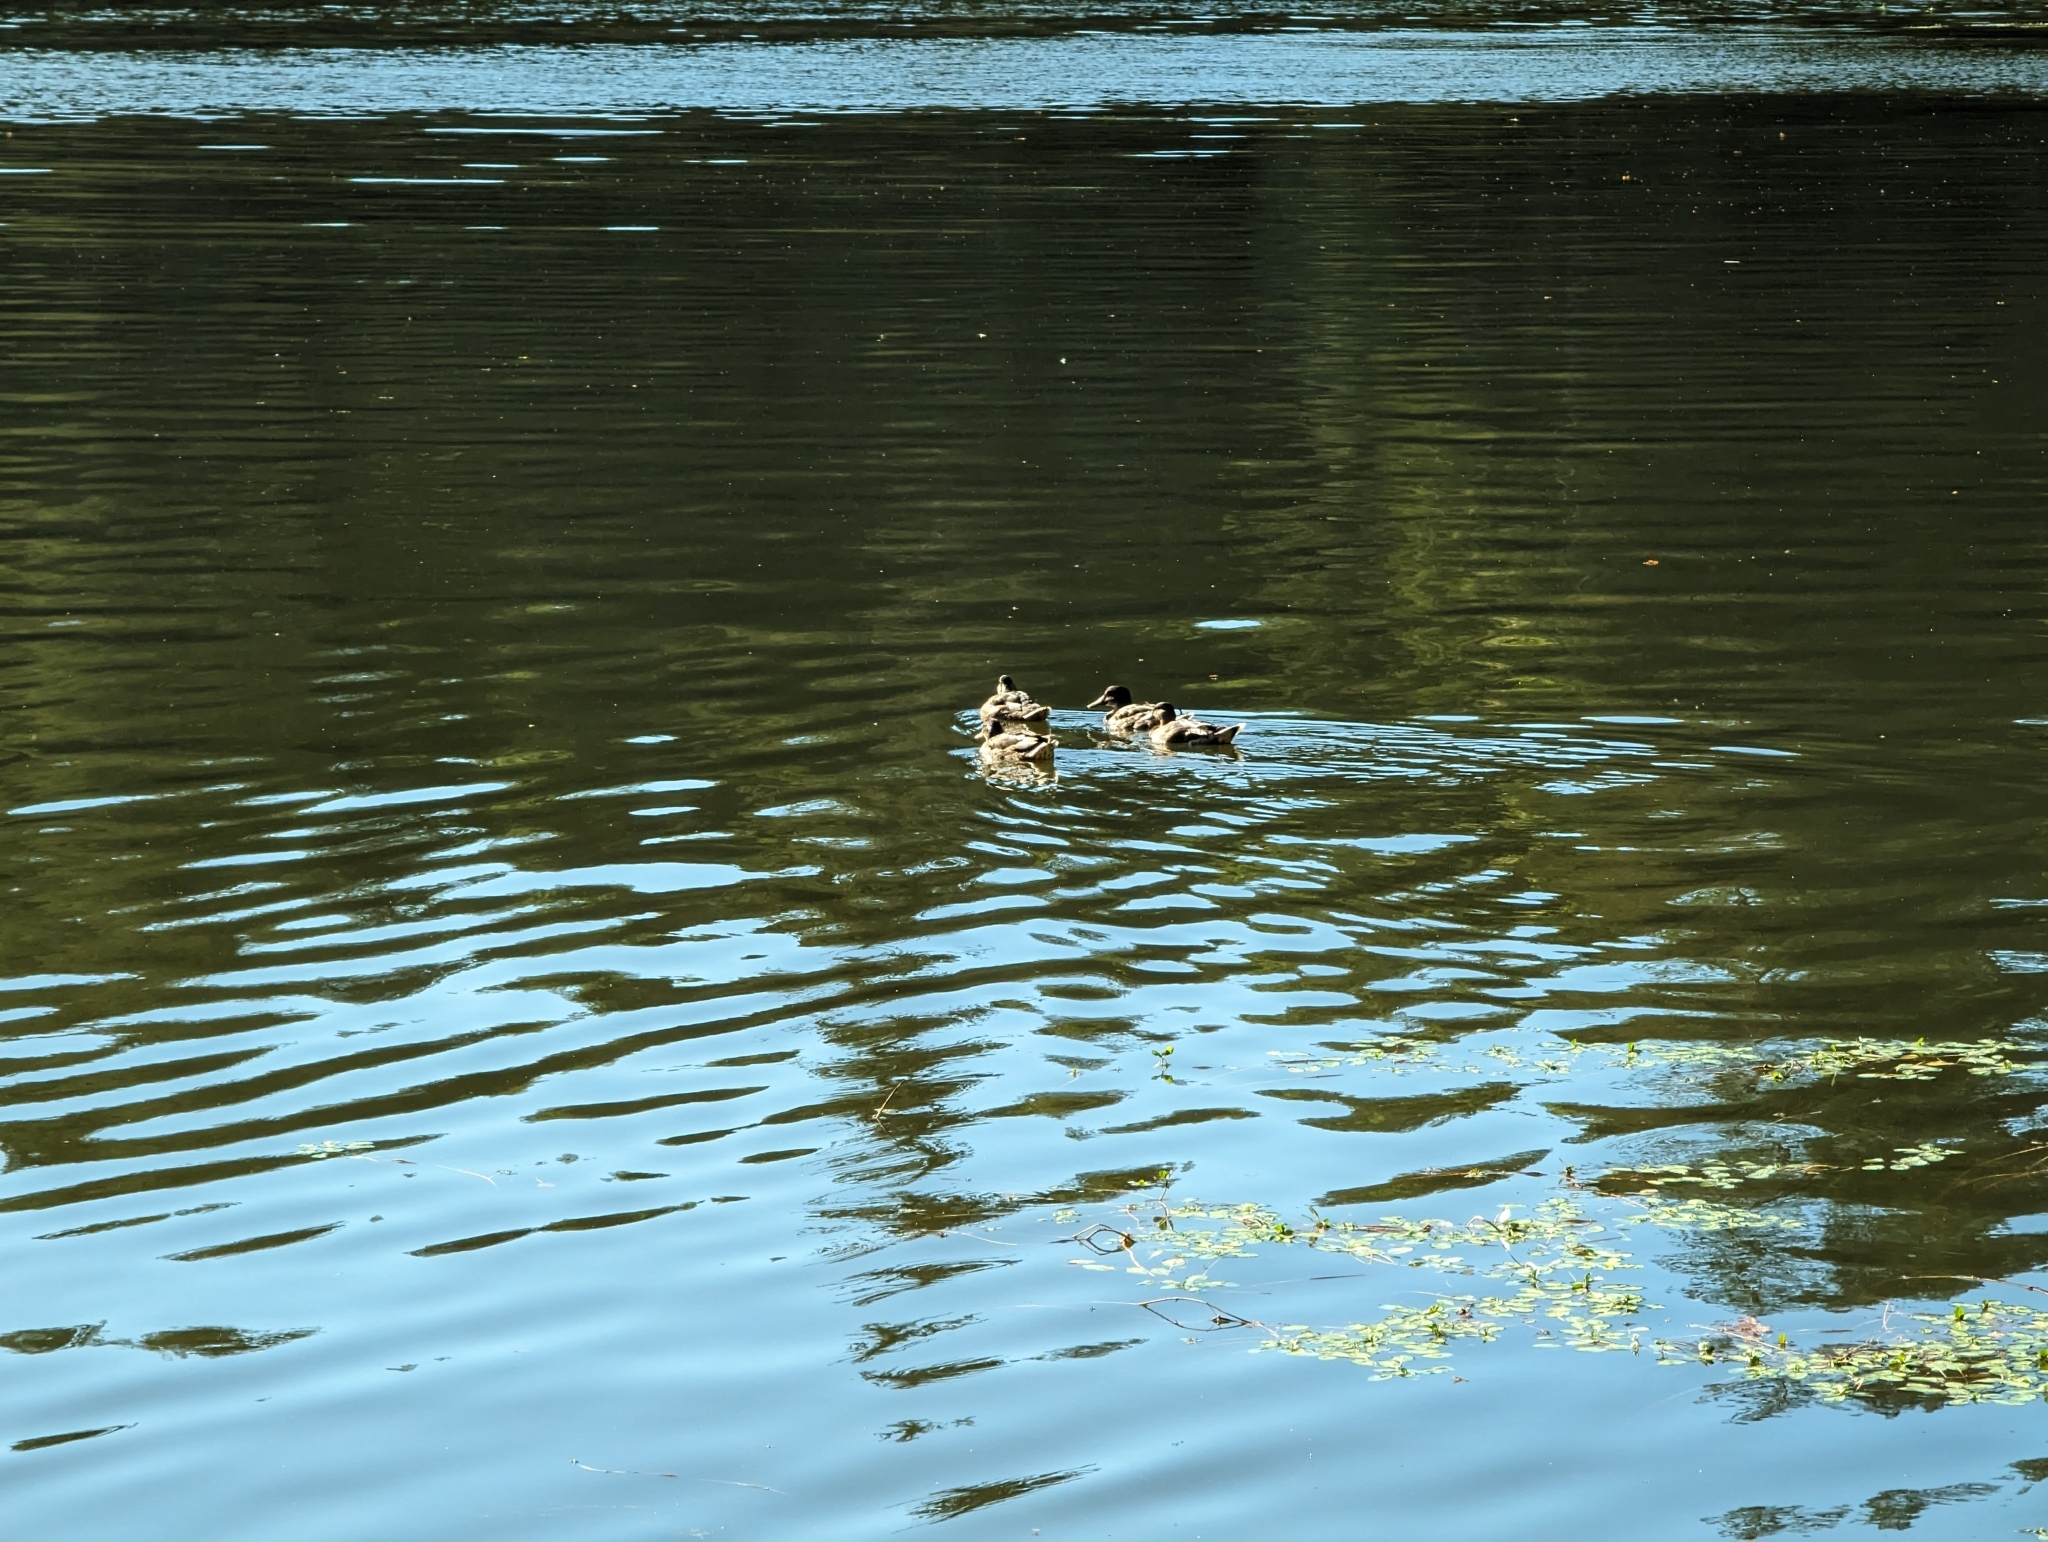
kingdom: Animalia
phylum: Chordata
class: Aves
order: Anseriformes
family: Anatidae
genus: Anas
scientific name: Anas platyrhynchos
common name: Mallard
